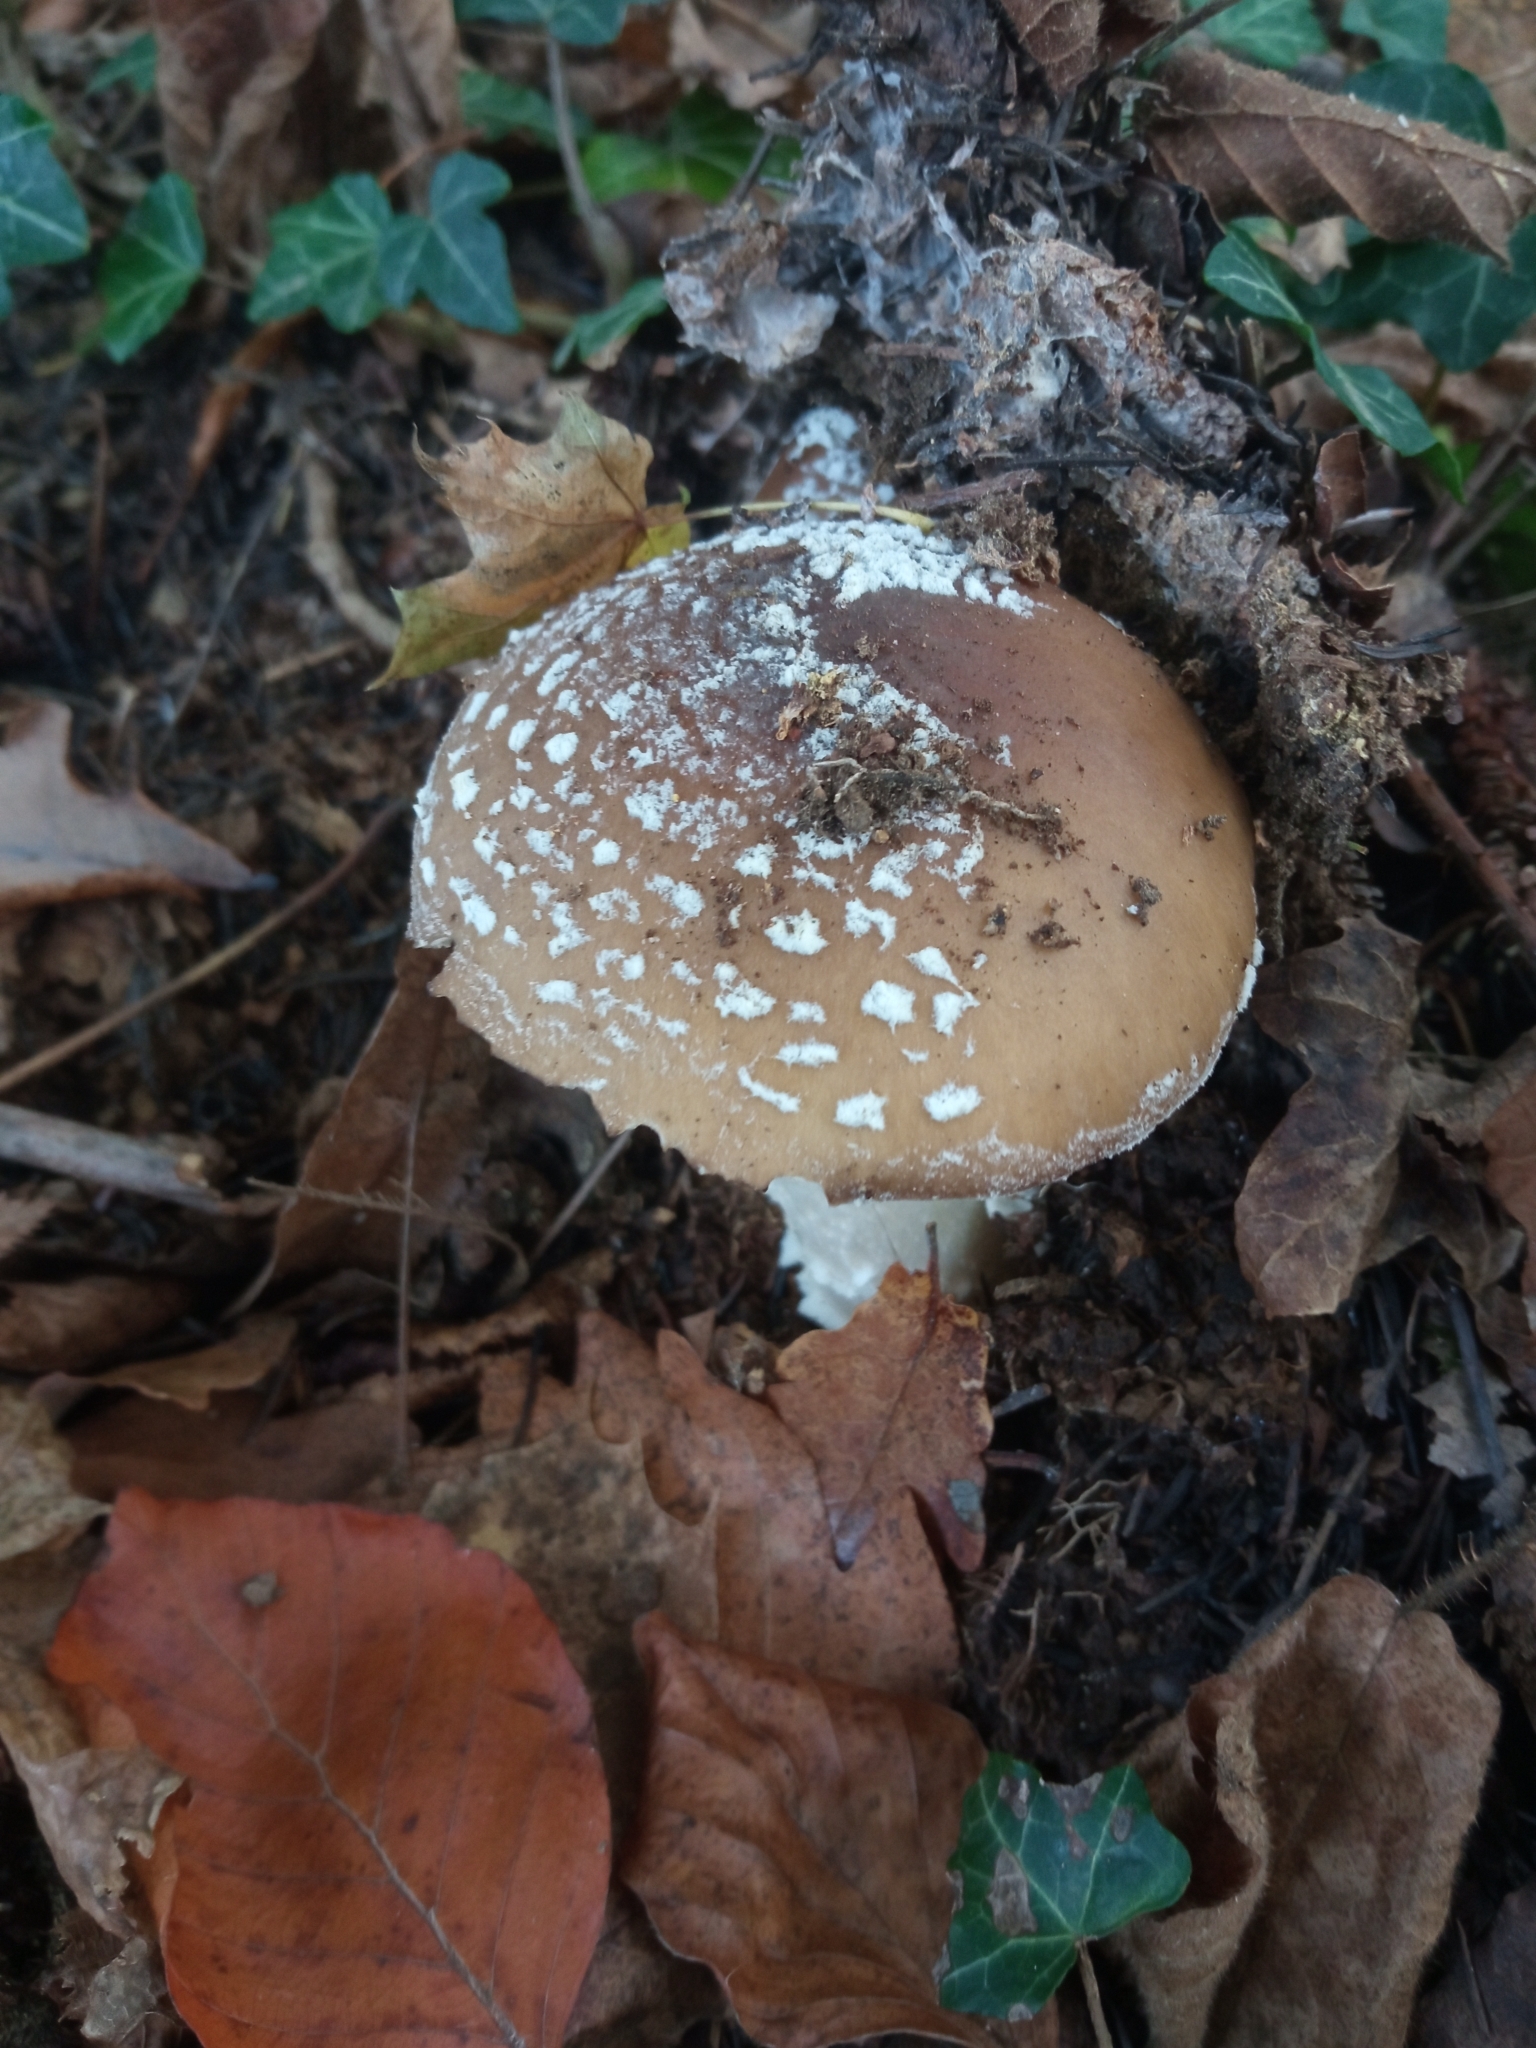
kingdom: Fungi
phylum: Basidiomycota
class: Agaricomycetes
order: Agaricales
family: Amanitaceae
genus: Amanita
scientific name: Amanita pantherina
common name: Panthercap
